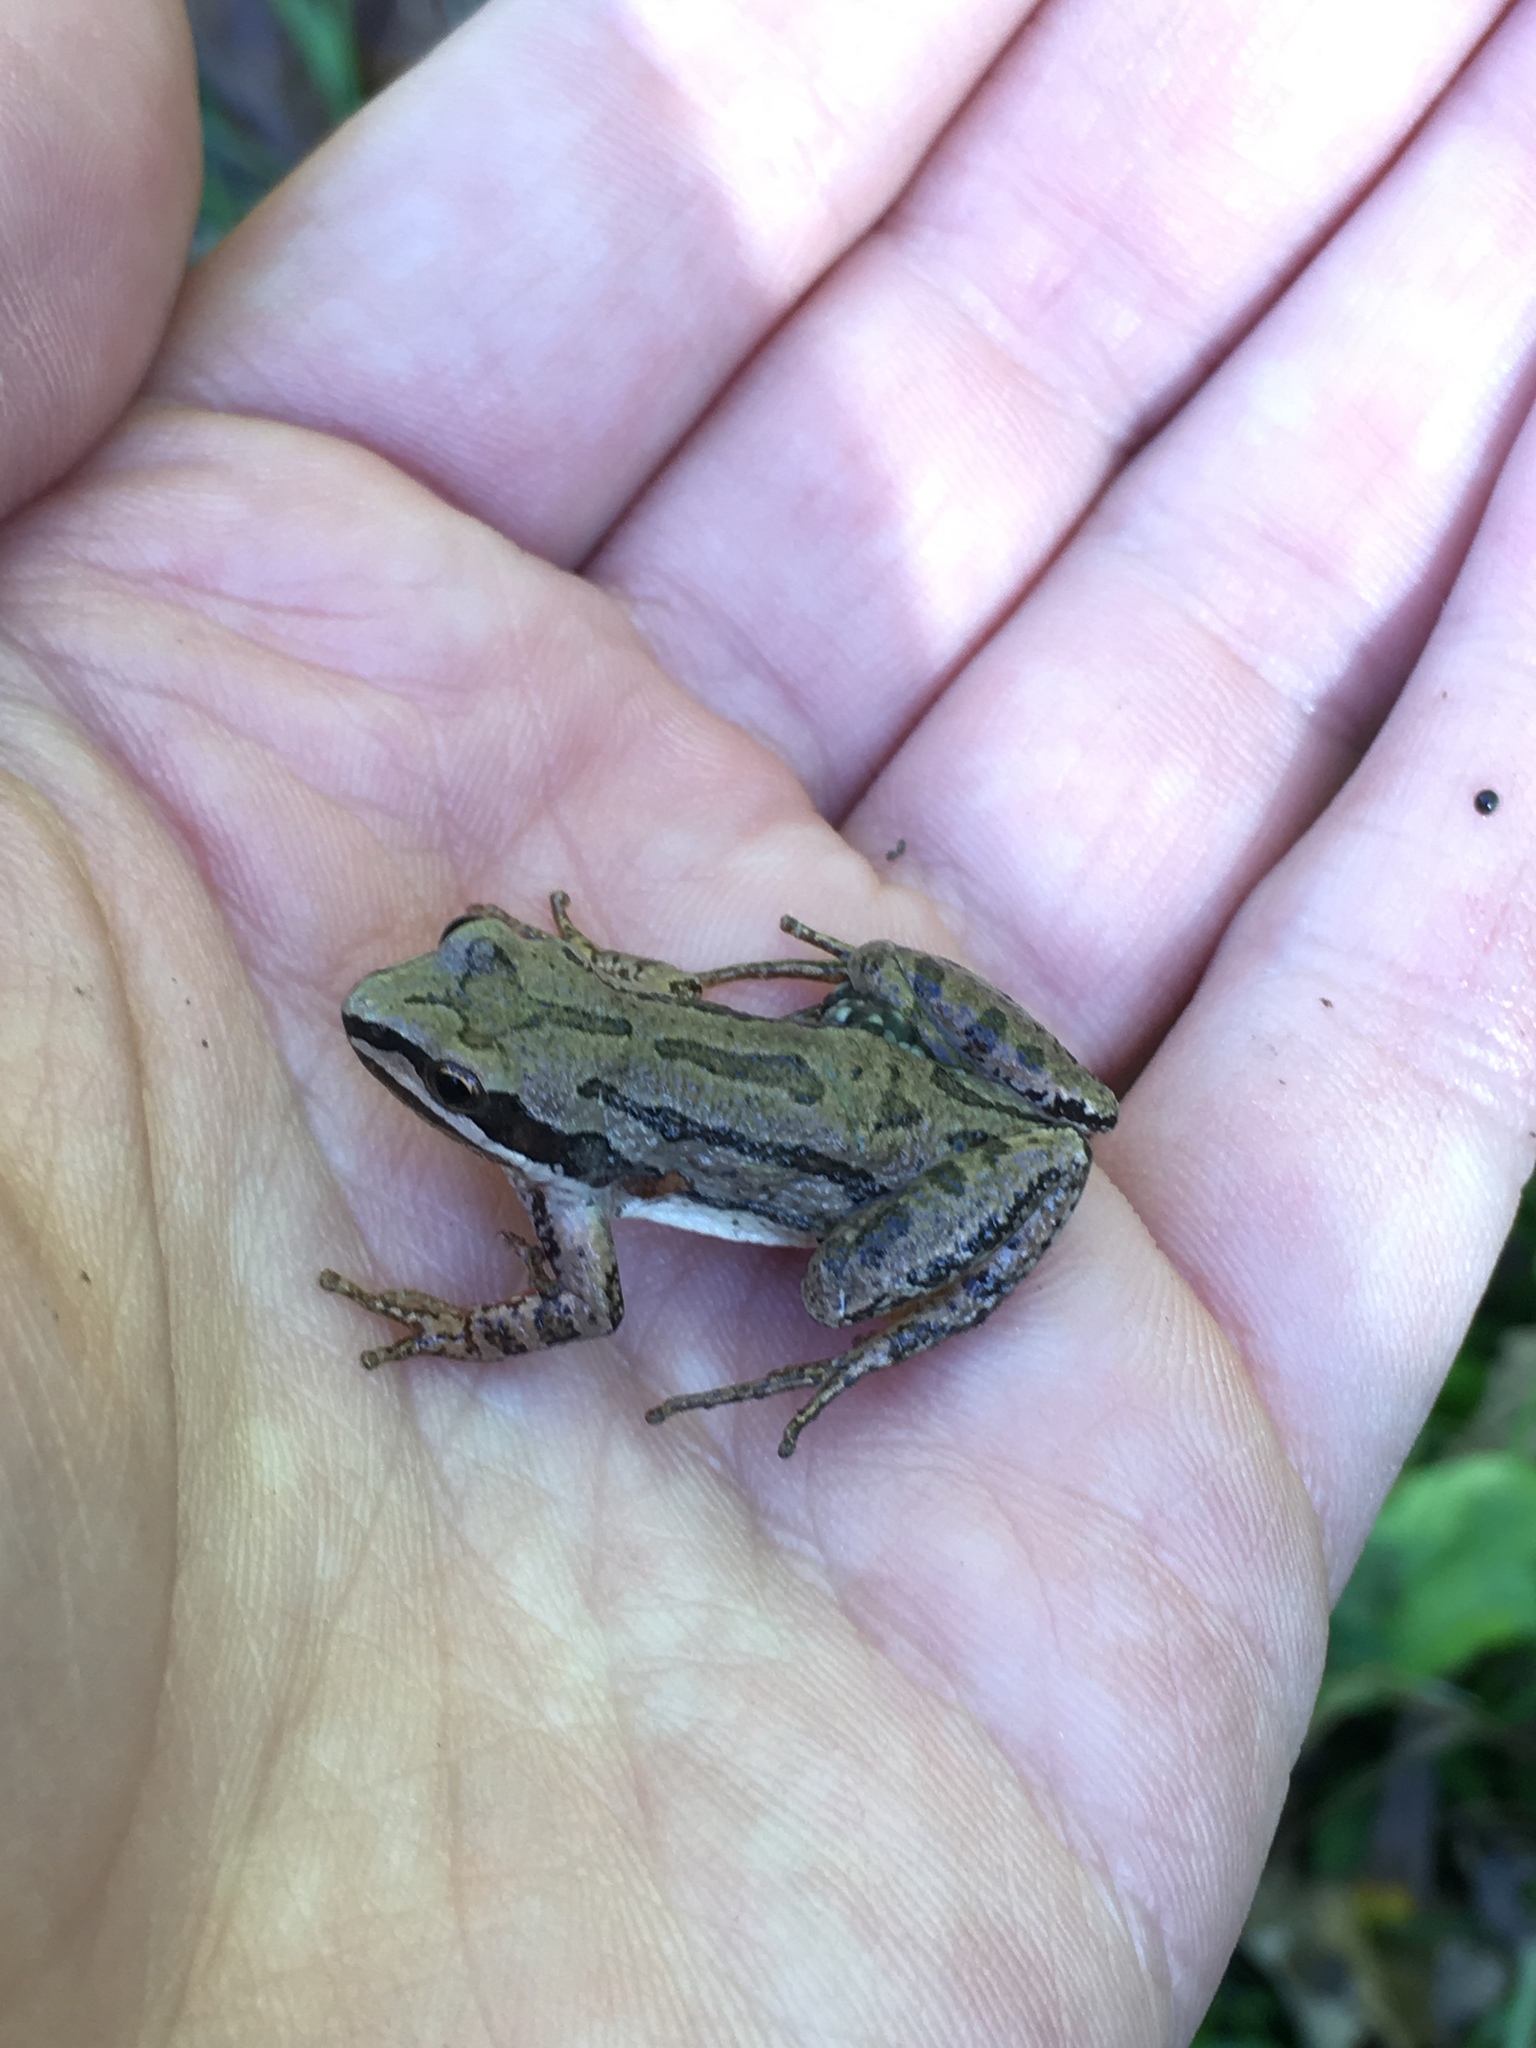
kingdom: Animalia
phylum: Chordata
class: Amphibia
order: Anura
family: Hylidae
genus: Pseudacris
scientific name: Pseudacris triseriata
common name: Western chorus frog
